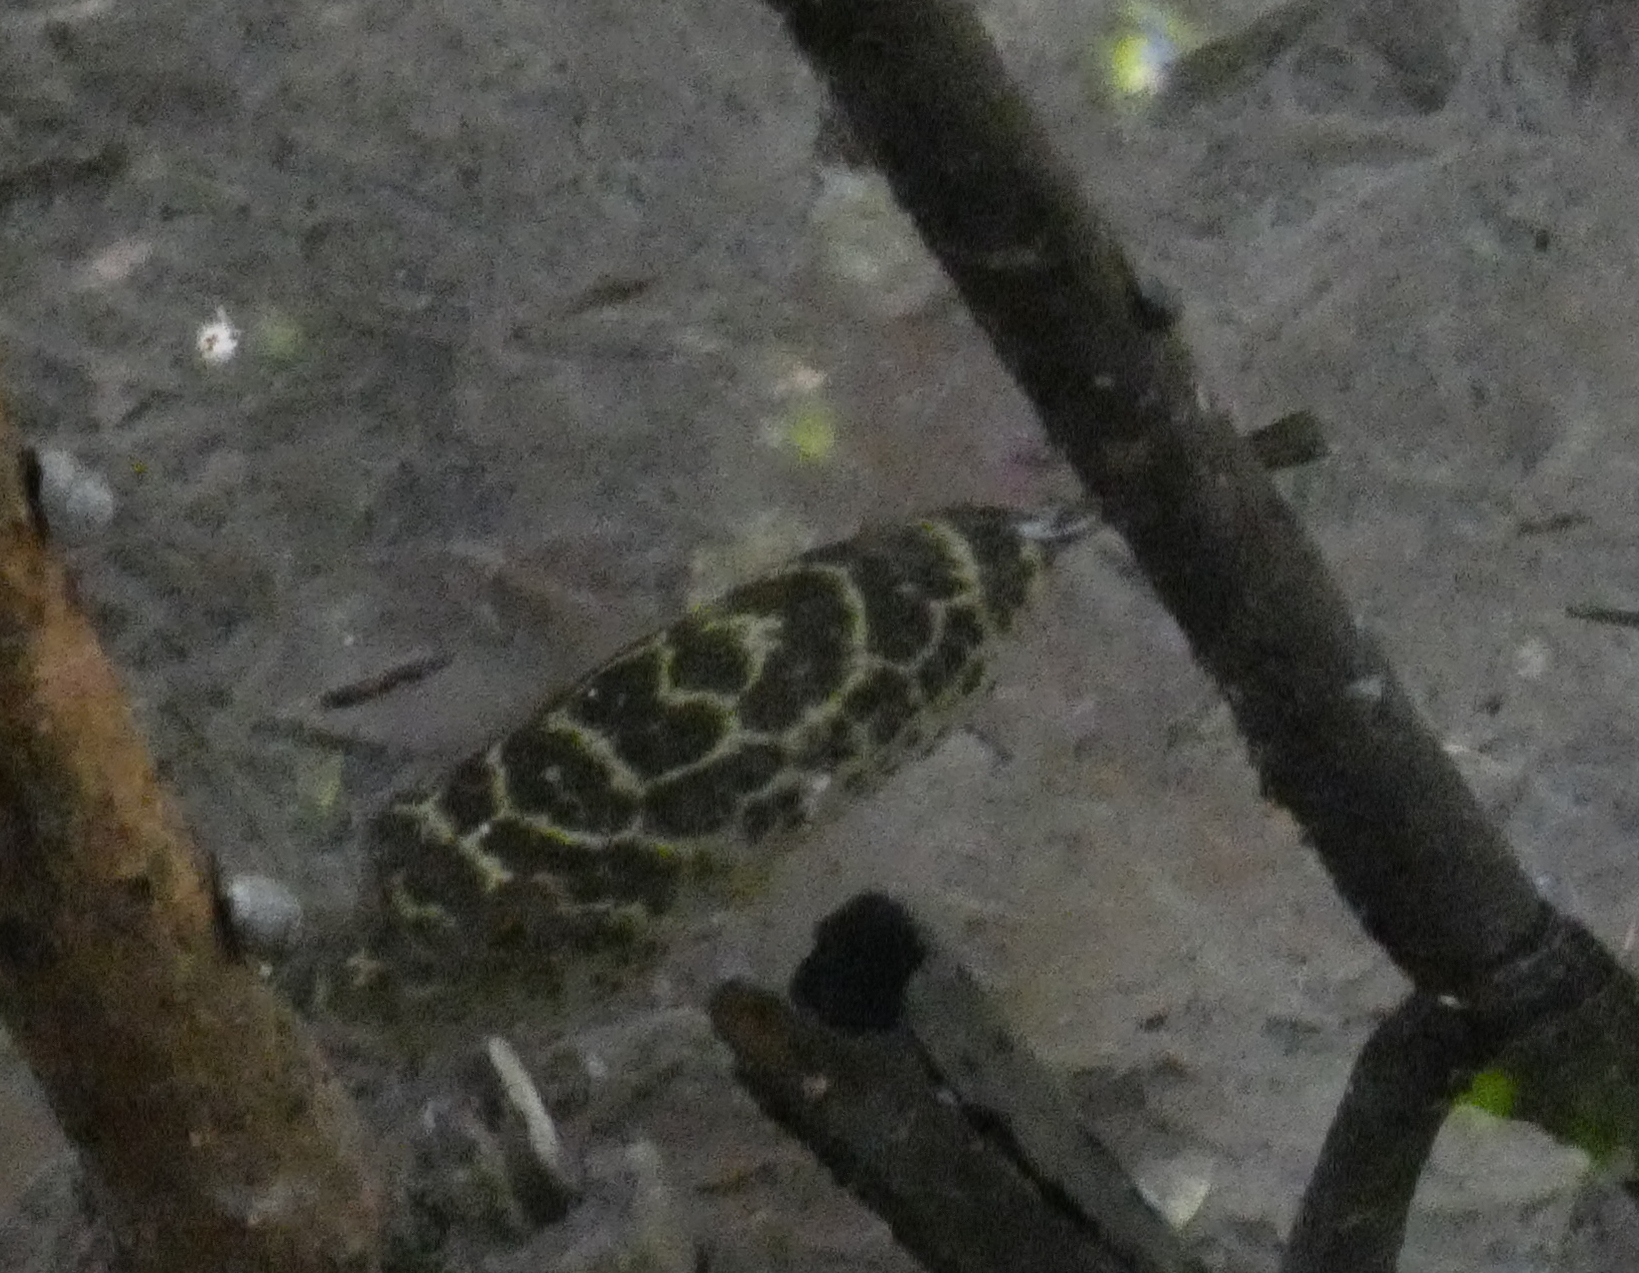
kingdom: Animalia
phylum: Chordata
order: Tetraodontiformes
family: Tetraodontidae
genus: Sphoeroides
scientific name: Sphoeroides testudineus
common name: Checkered puffer
